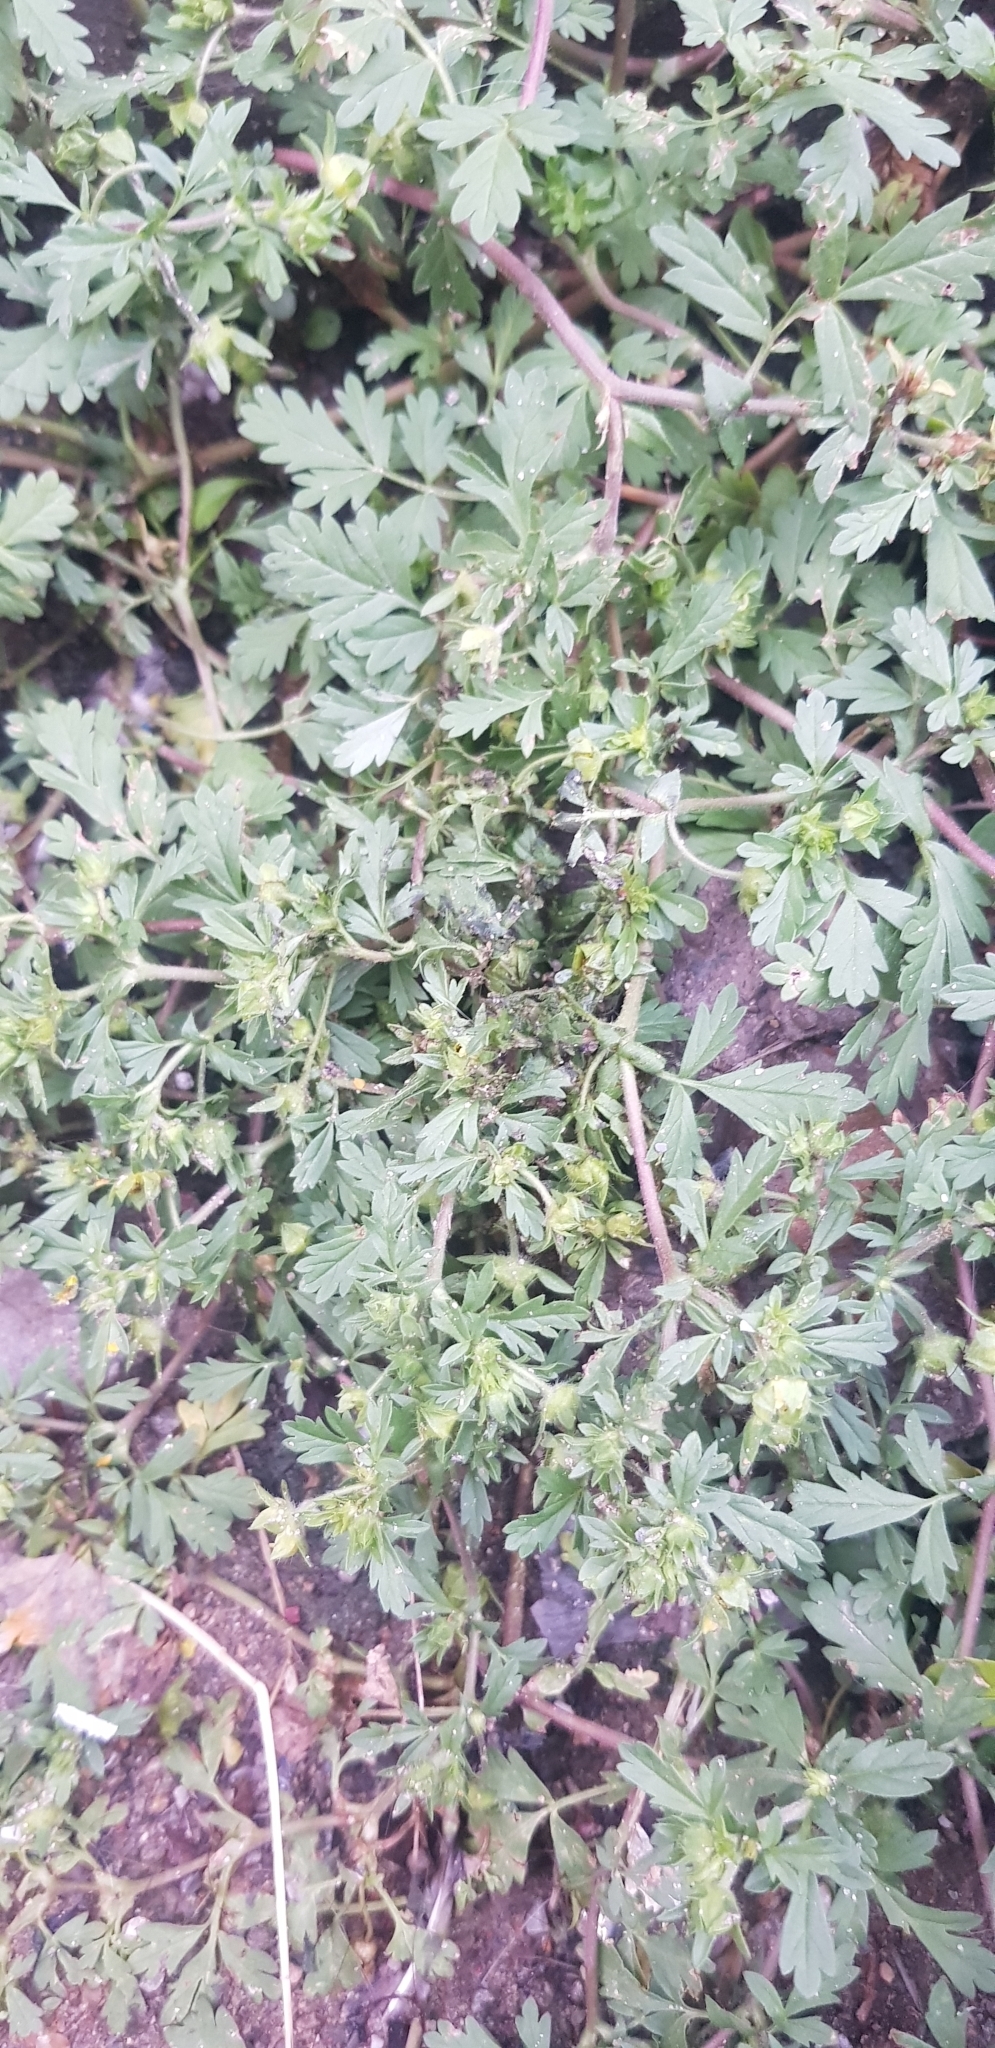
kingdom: Plantae
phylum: Tracheophyta
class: Magnoliopsida
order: Rosales
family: Rosaceae
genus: Potentilla
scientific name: Potentilla supina
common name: Prostrate cinquefoil
